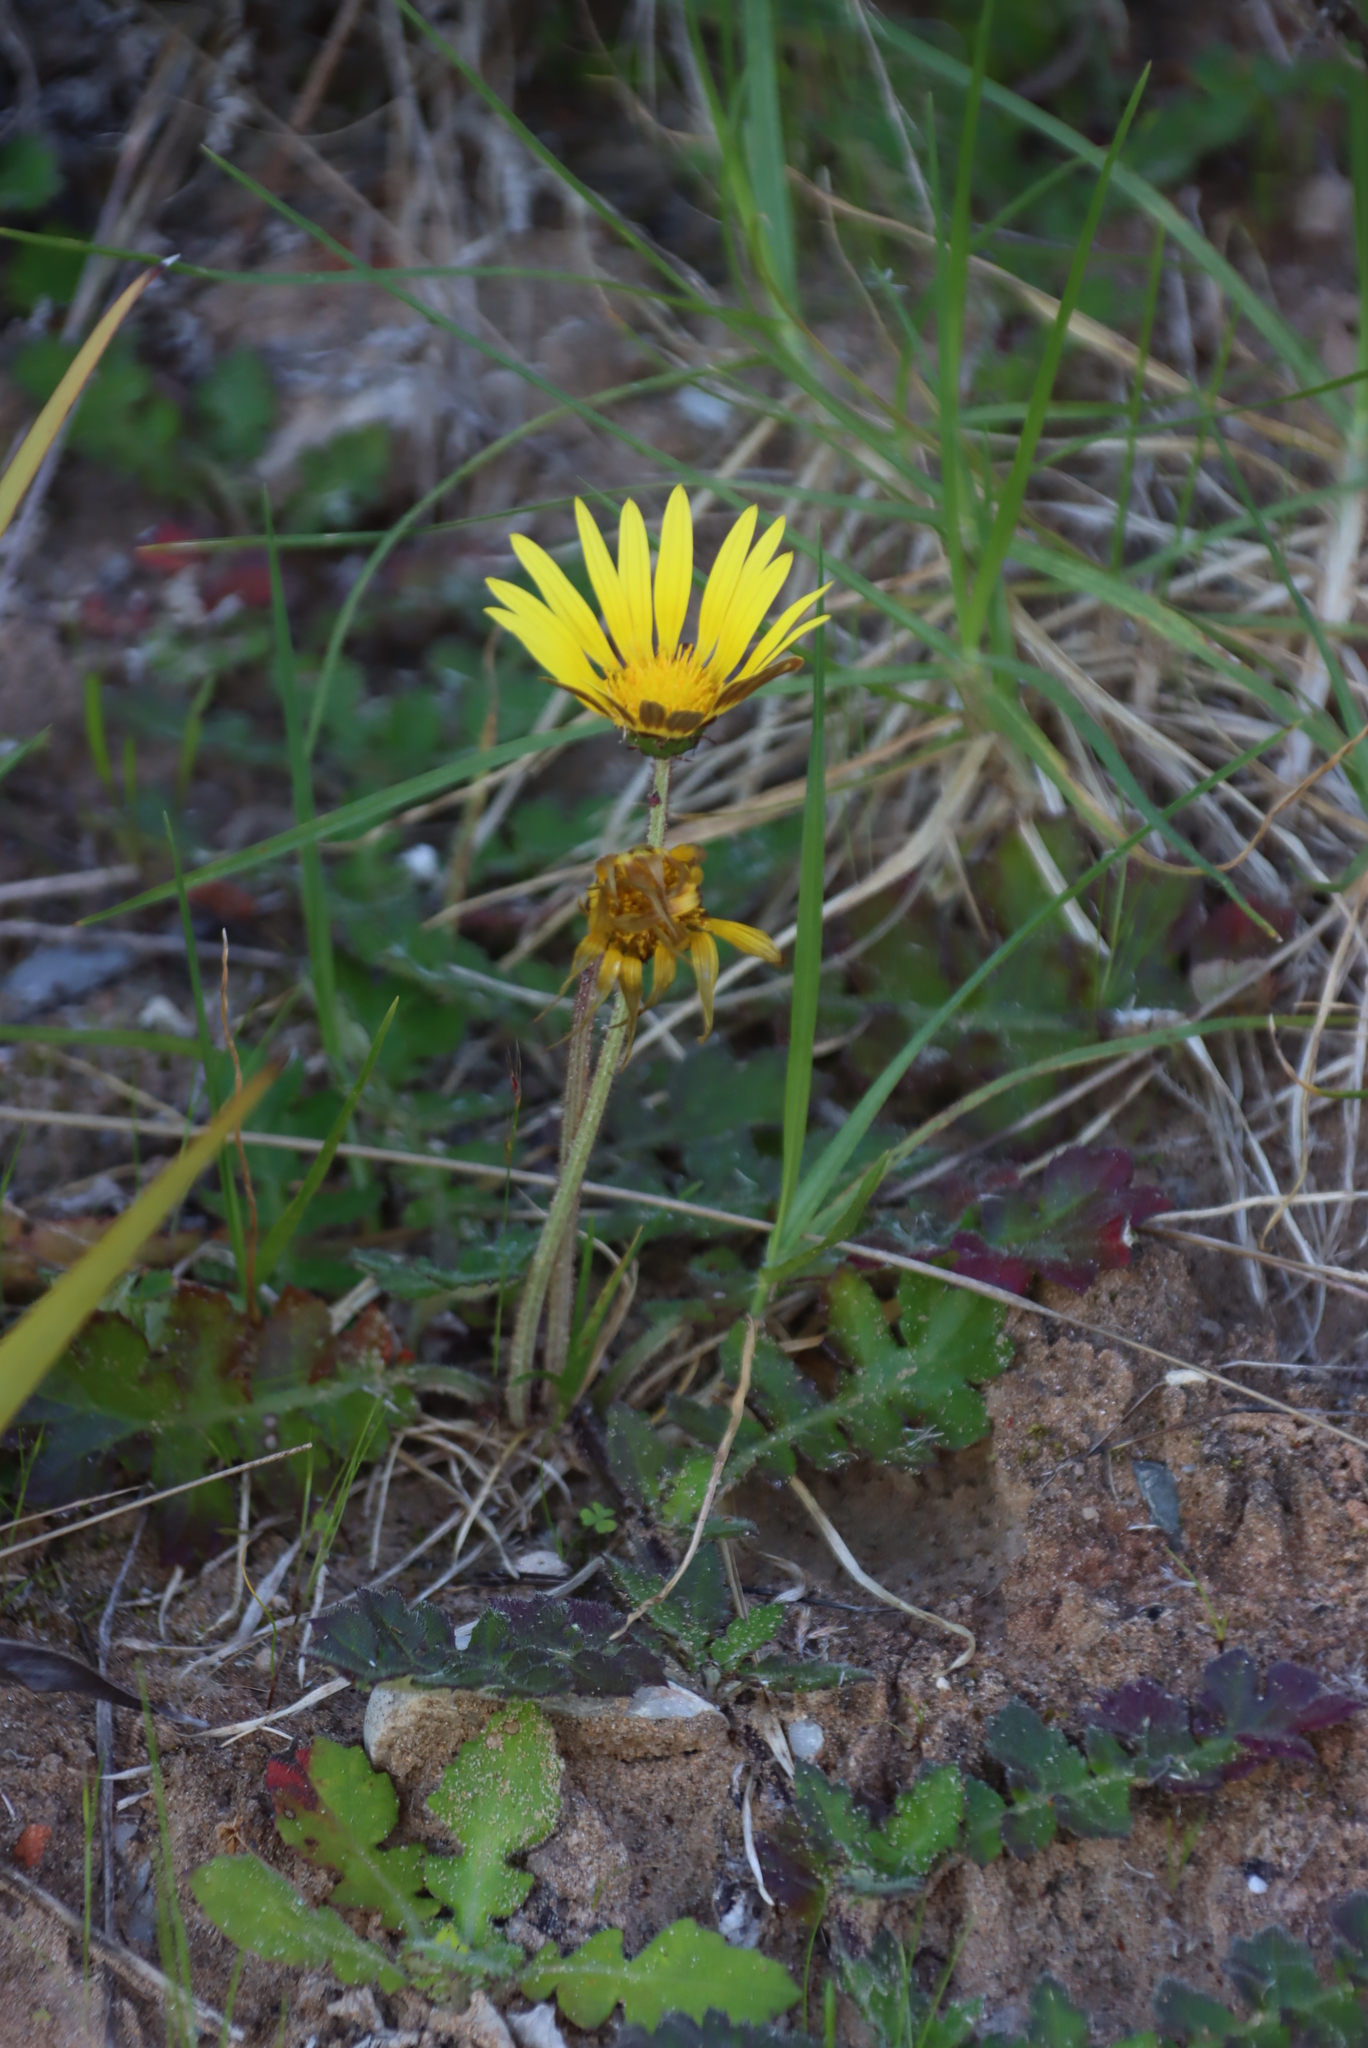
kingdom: Plantae
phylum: Tracheophyta
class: Magnoliopsida
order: Asterales
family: Asteraceae
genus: Arctotheca
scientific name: Arctotheca prostrata
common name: Capeweed
